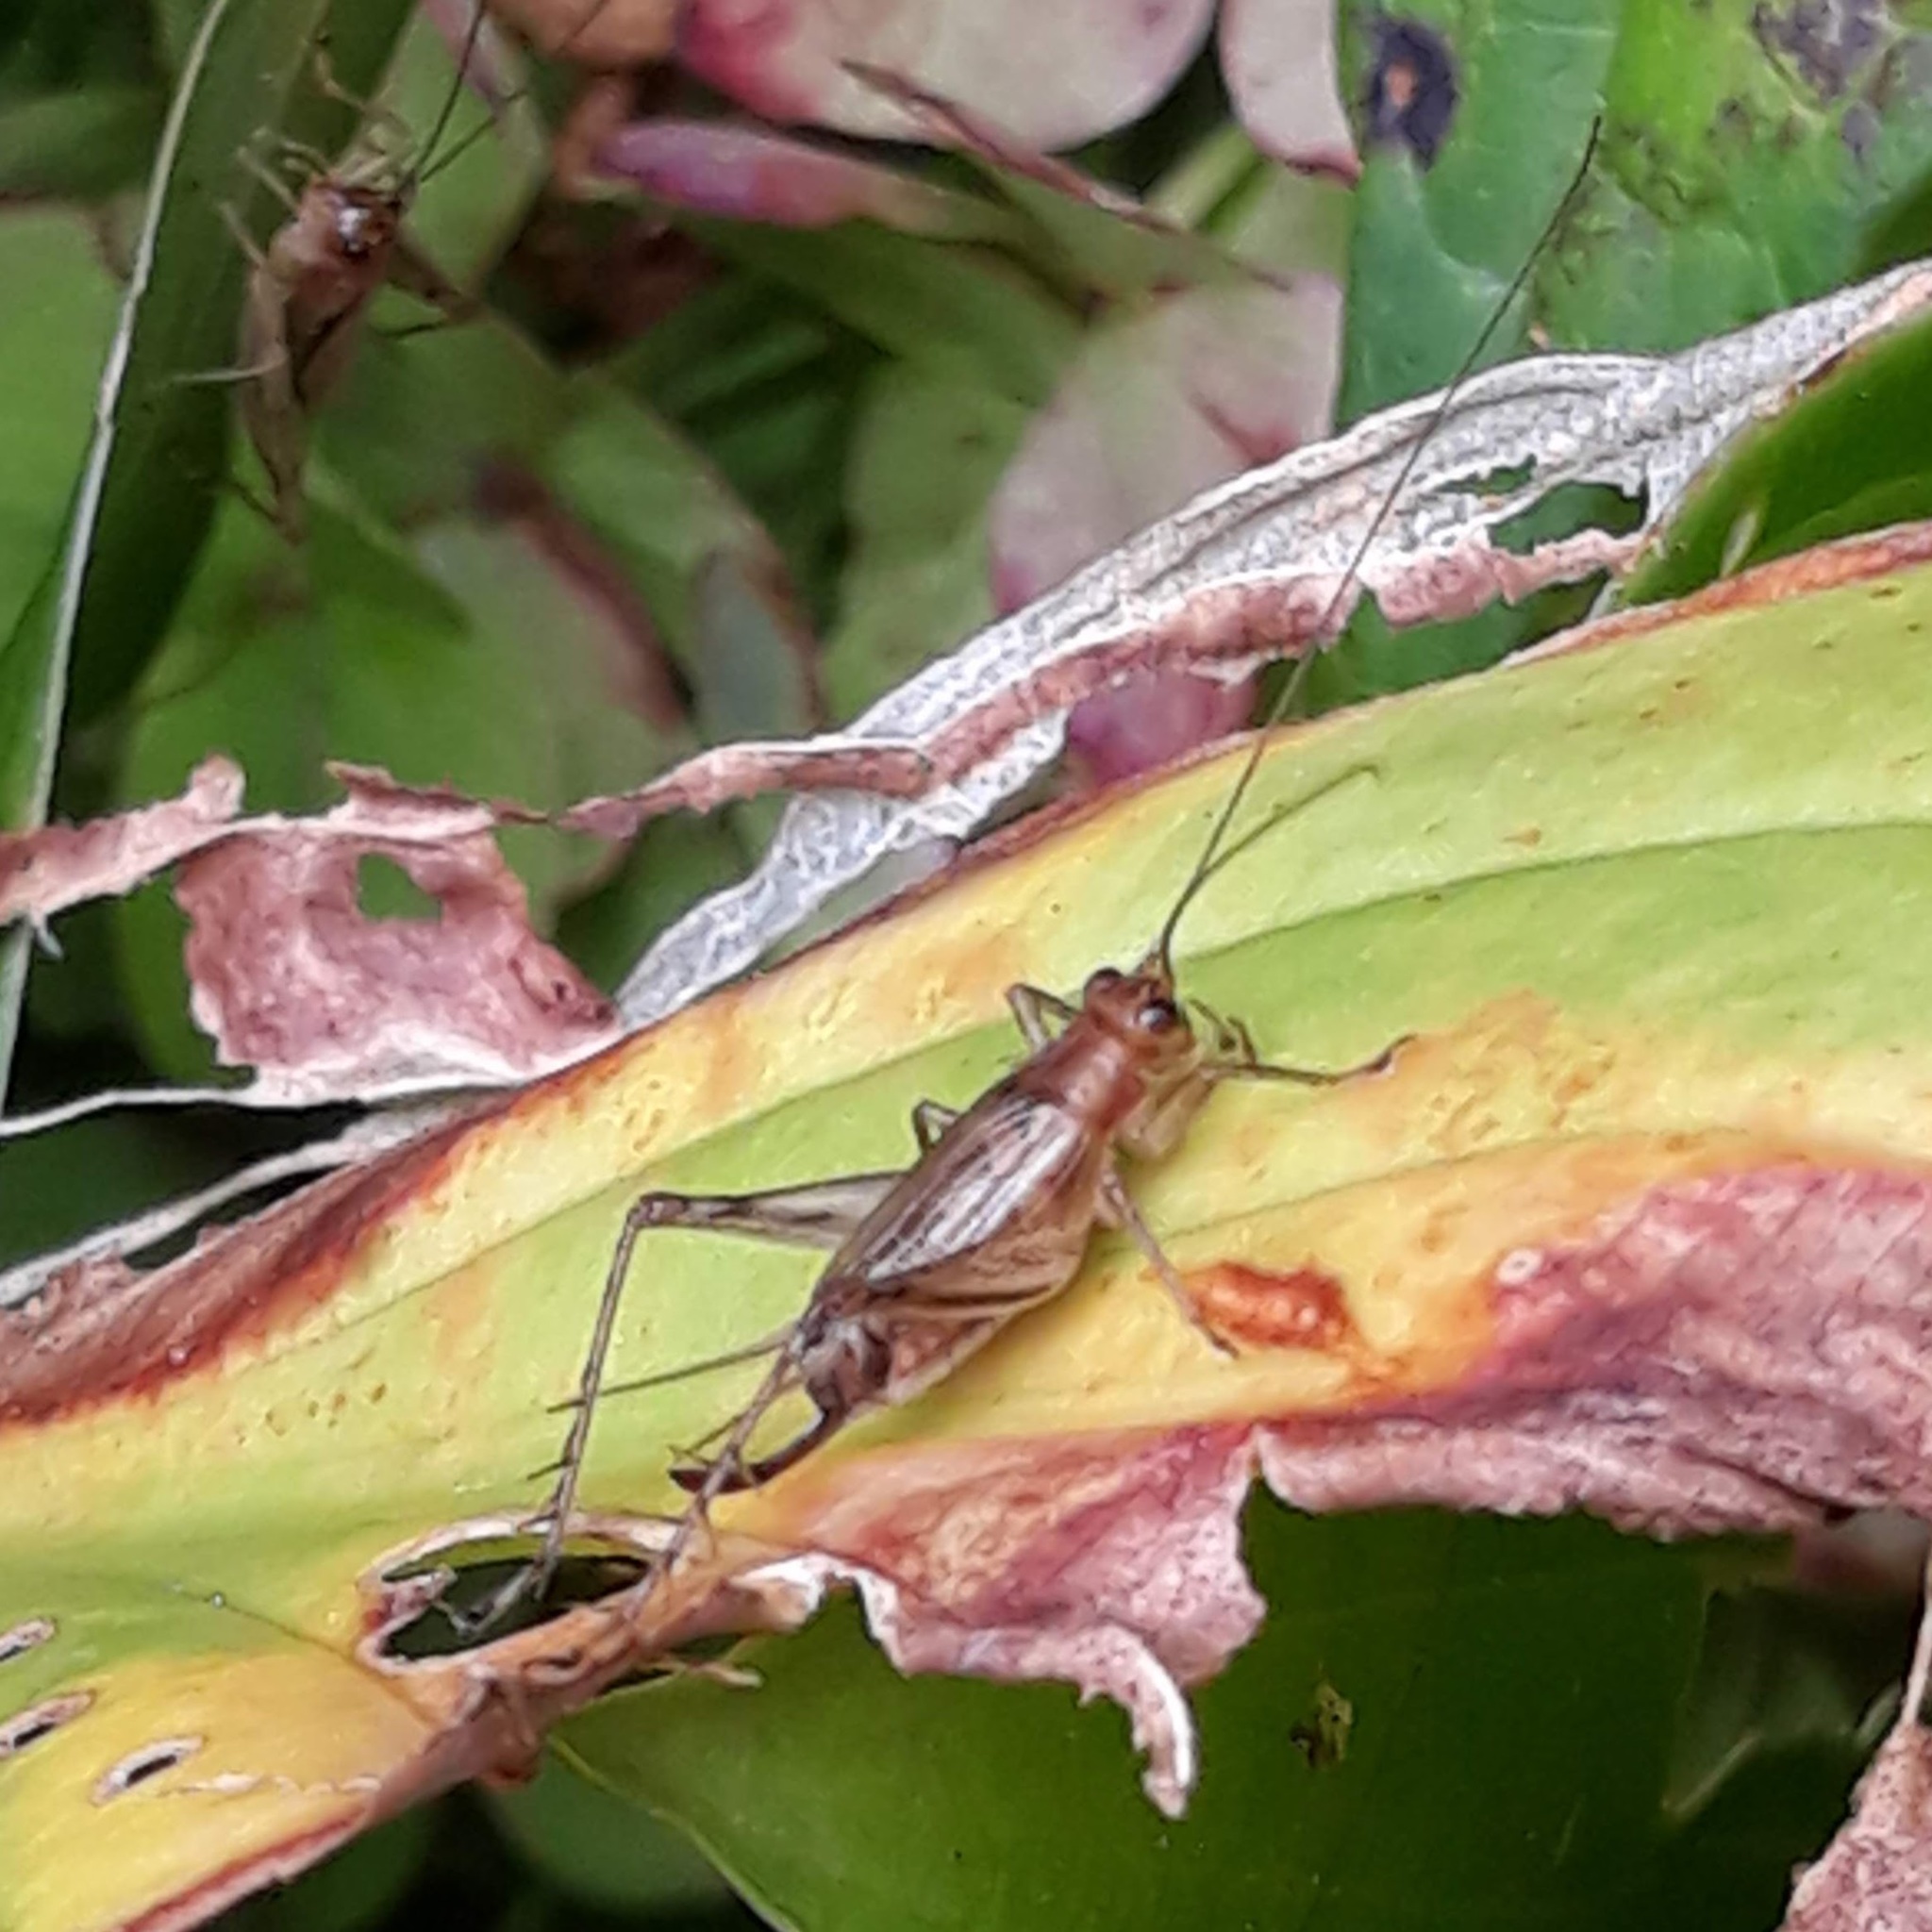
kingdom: Animalia
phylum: Arthropoda
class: Insecta
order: Orthoptera
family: Trigonidiidae
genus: Anaxipha
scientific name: Anaxipha exigua
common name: Say's bush cricket
